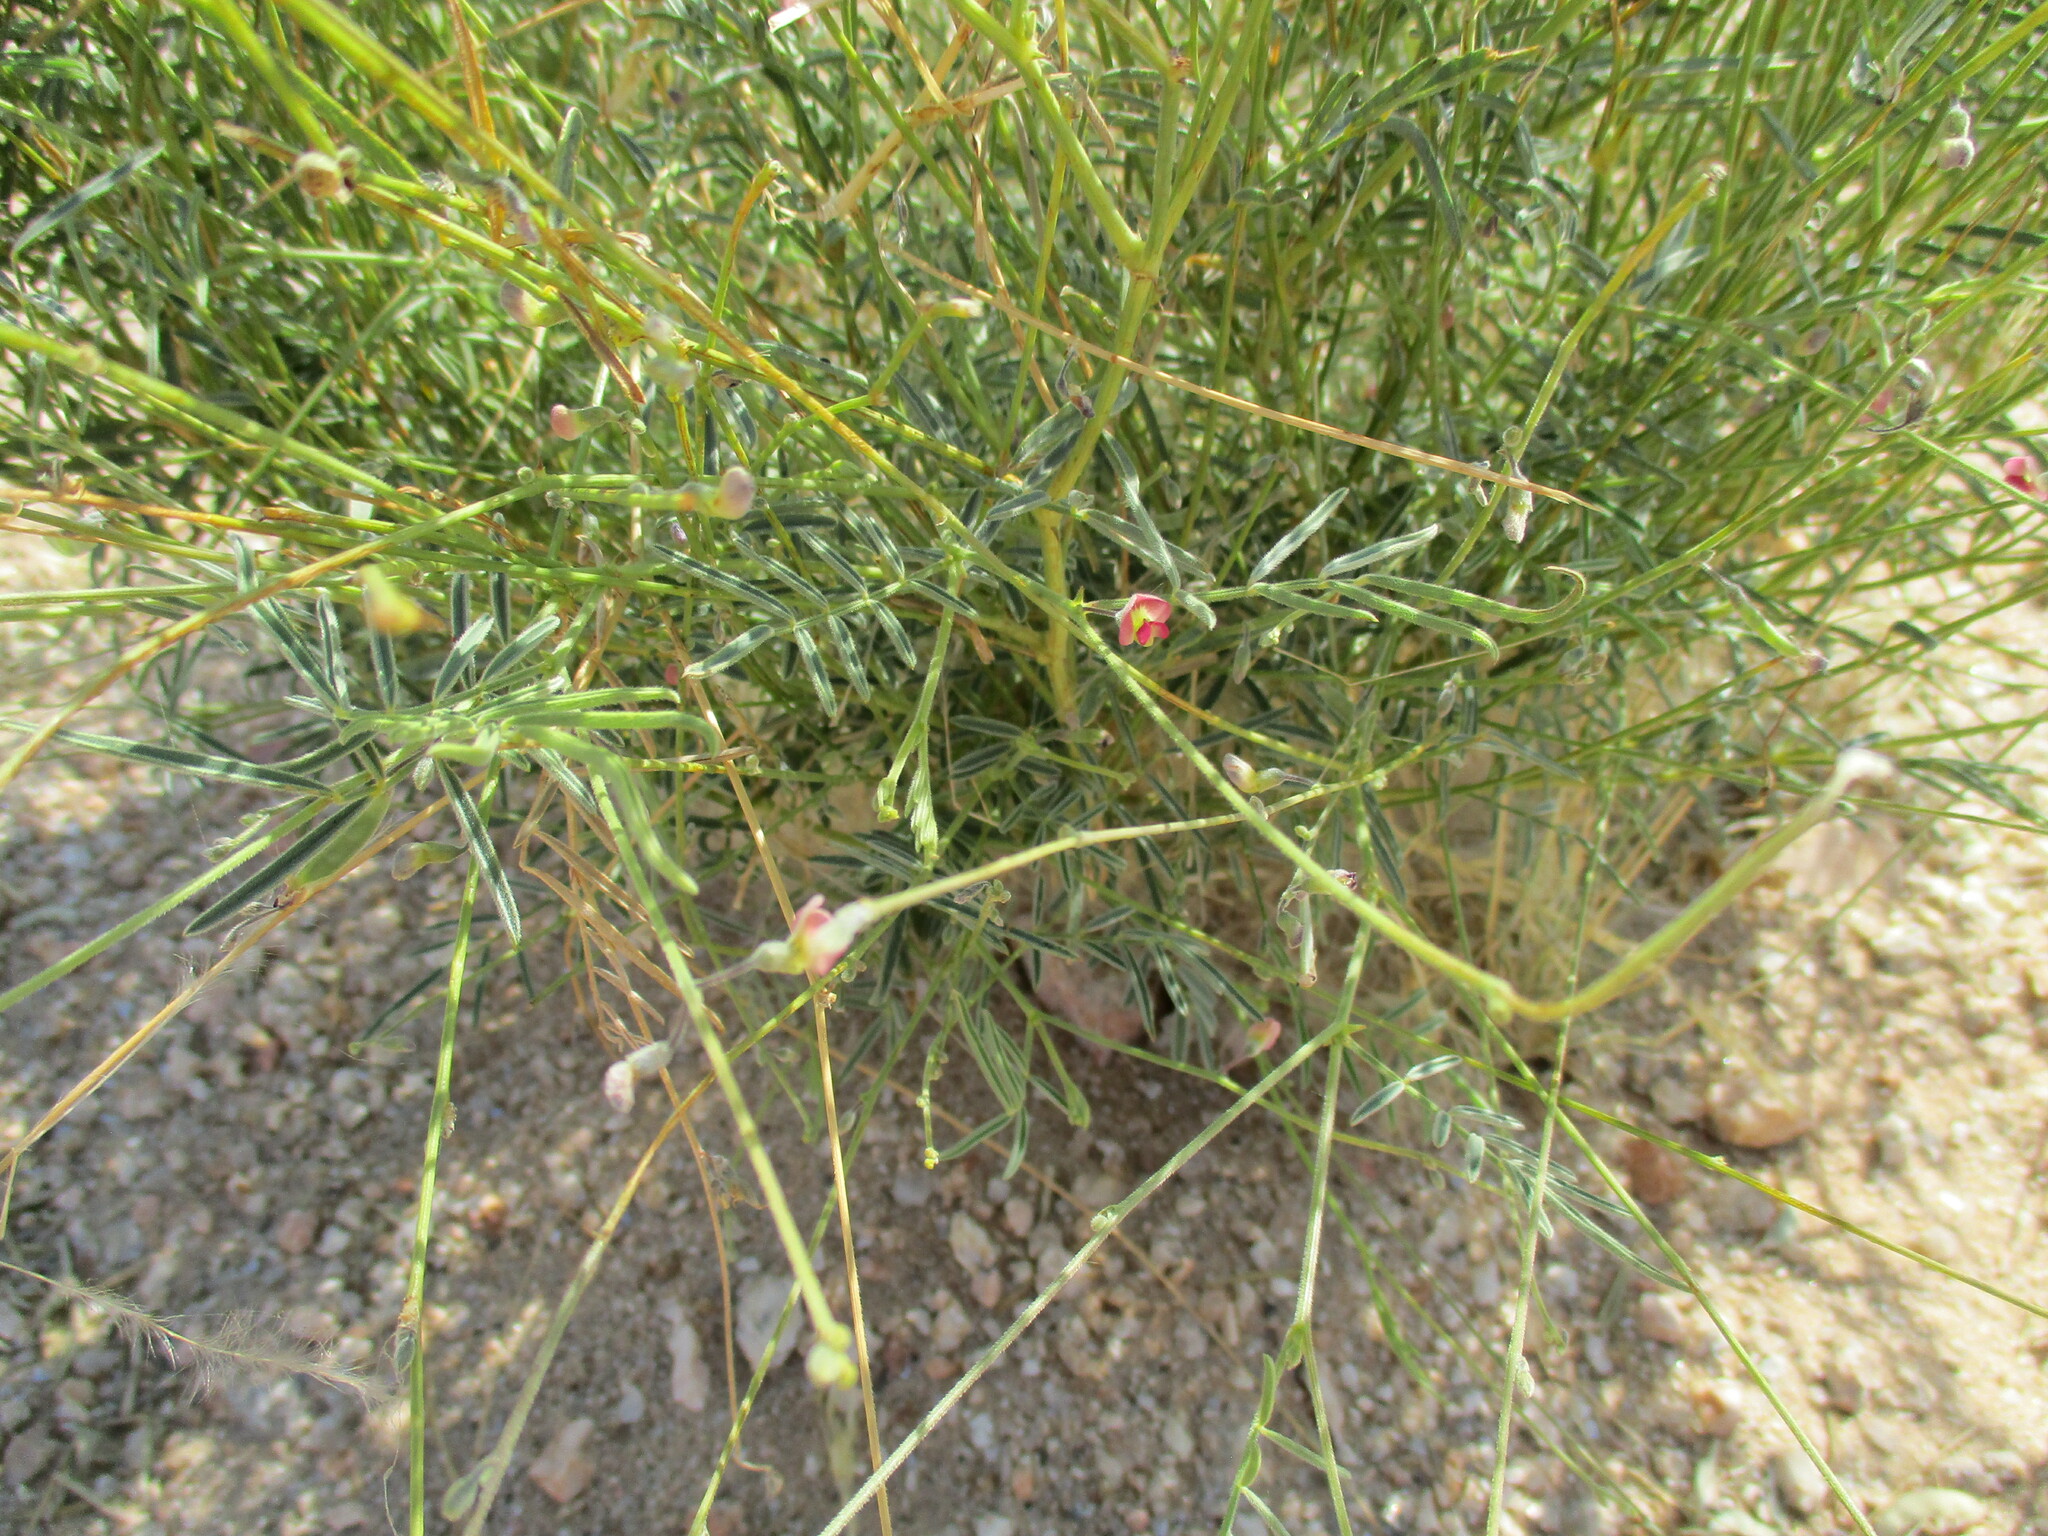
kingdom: Plantae
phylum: Tracheophyta
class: Magnoliopsida
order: Fabales
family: Fabaceae
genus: Indigofera
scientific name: Indigofera heterotricha
